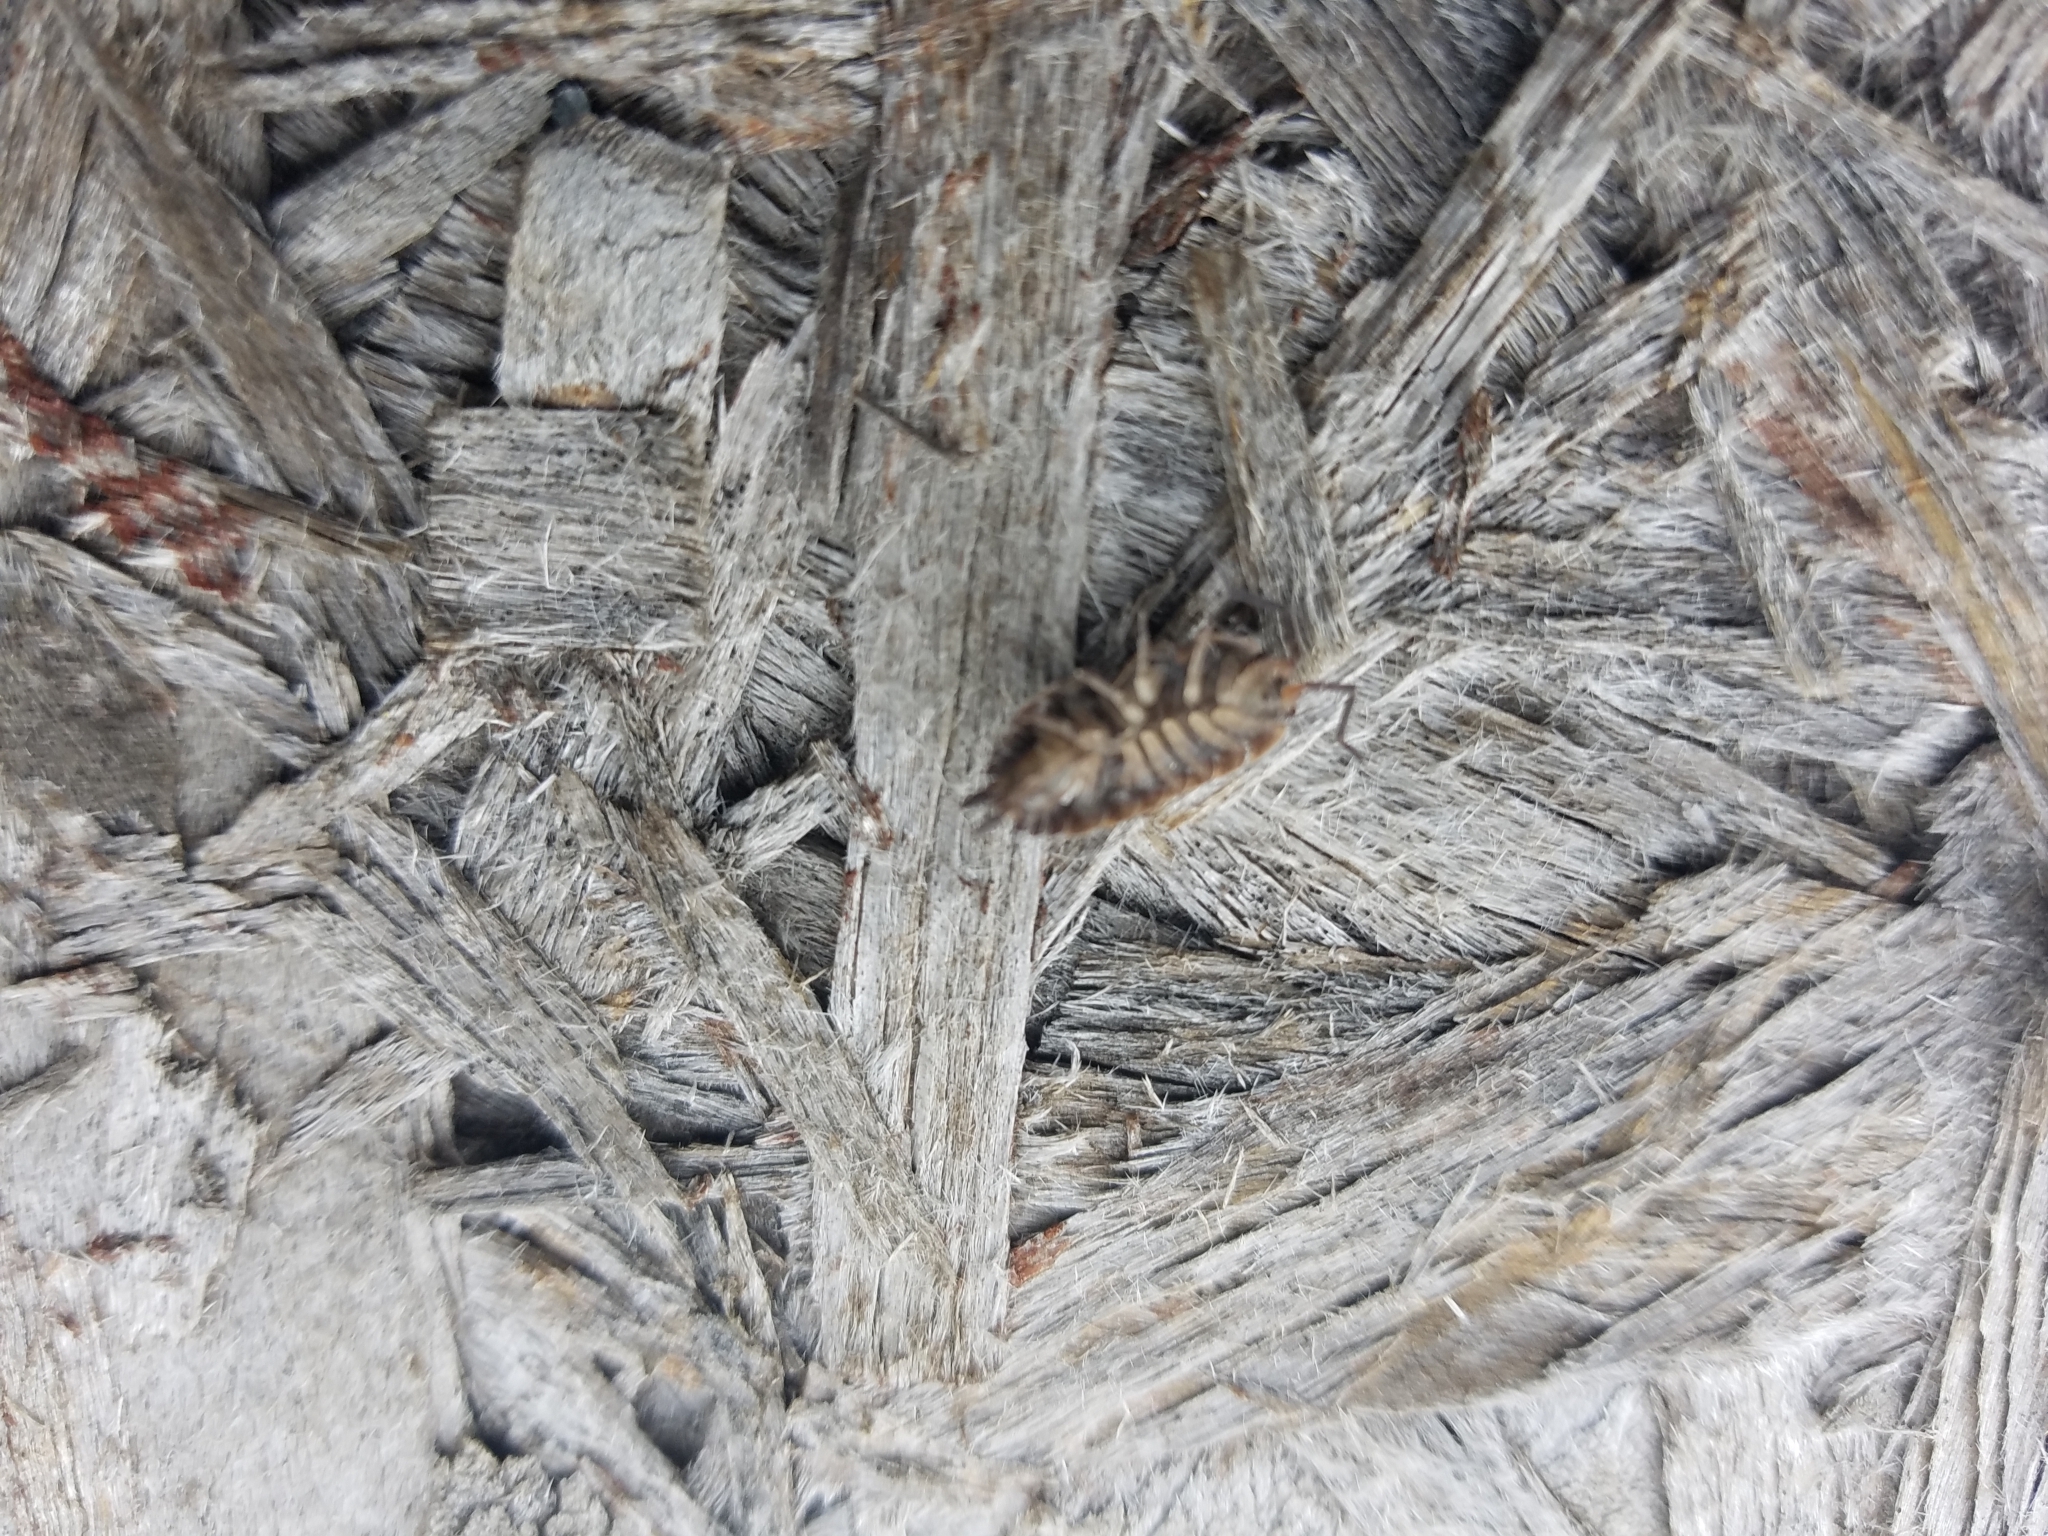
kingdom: Animalia
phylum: Arthropoda
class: Malacostraca
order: Isopoda
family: Porcellionidae
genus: Porcellio
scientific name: Porcellio scaber
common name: Common rough woodlouse
